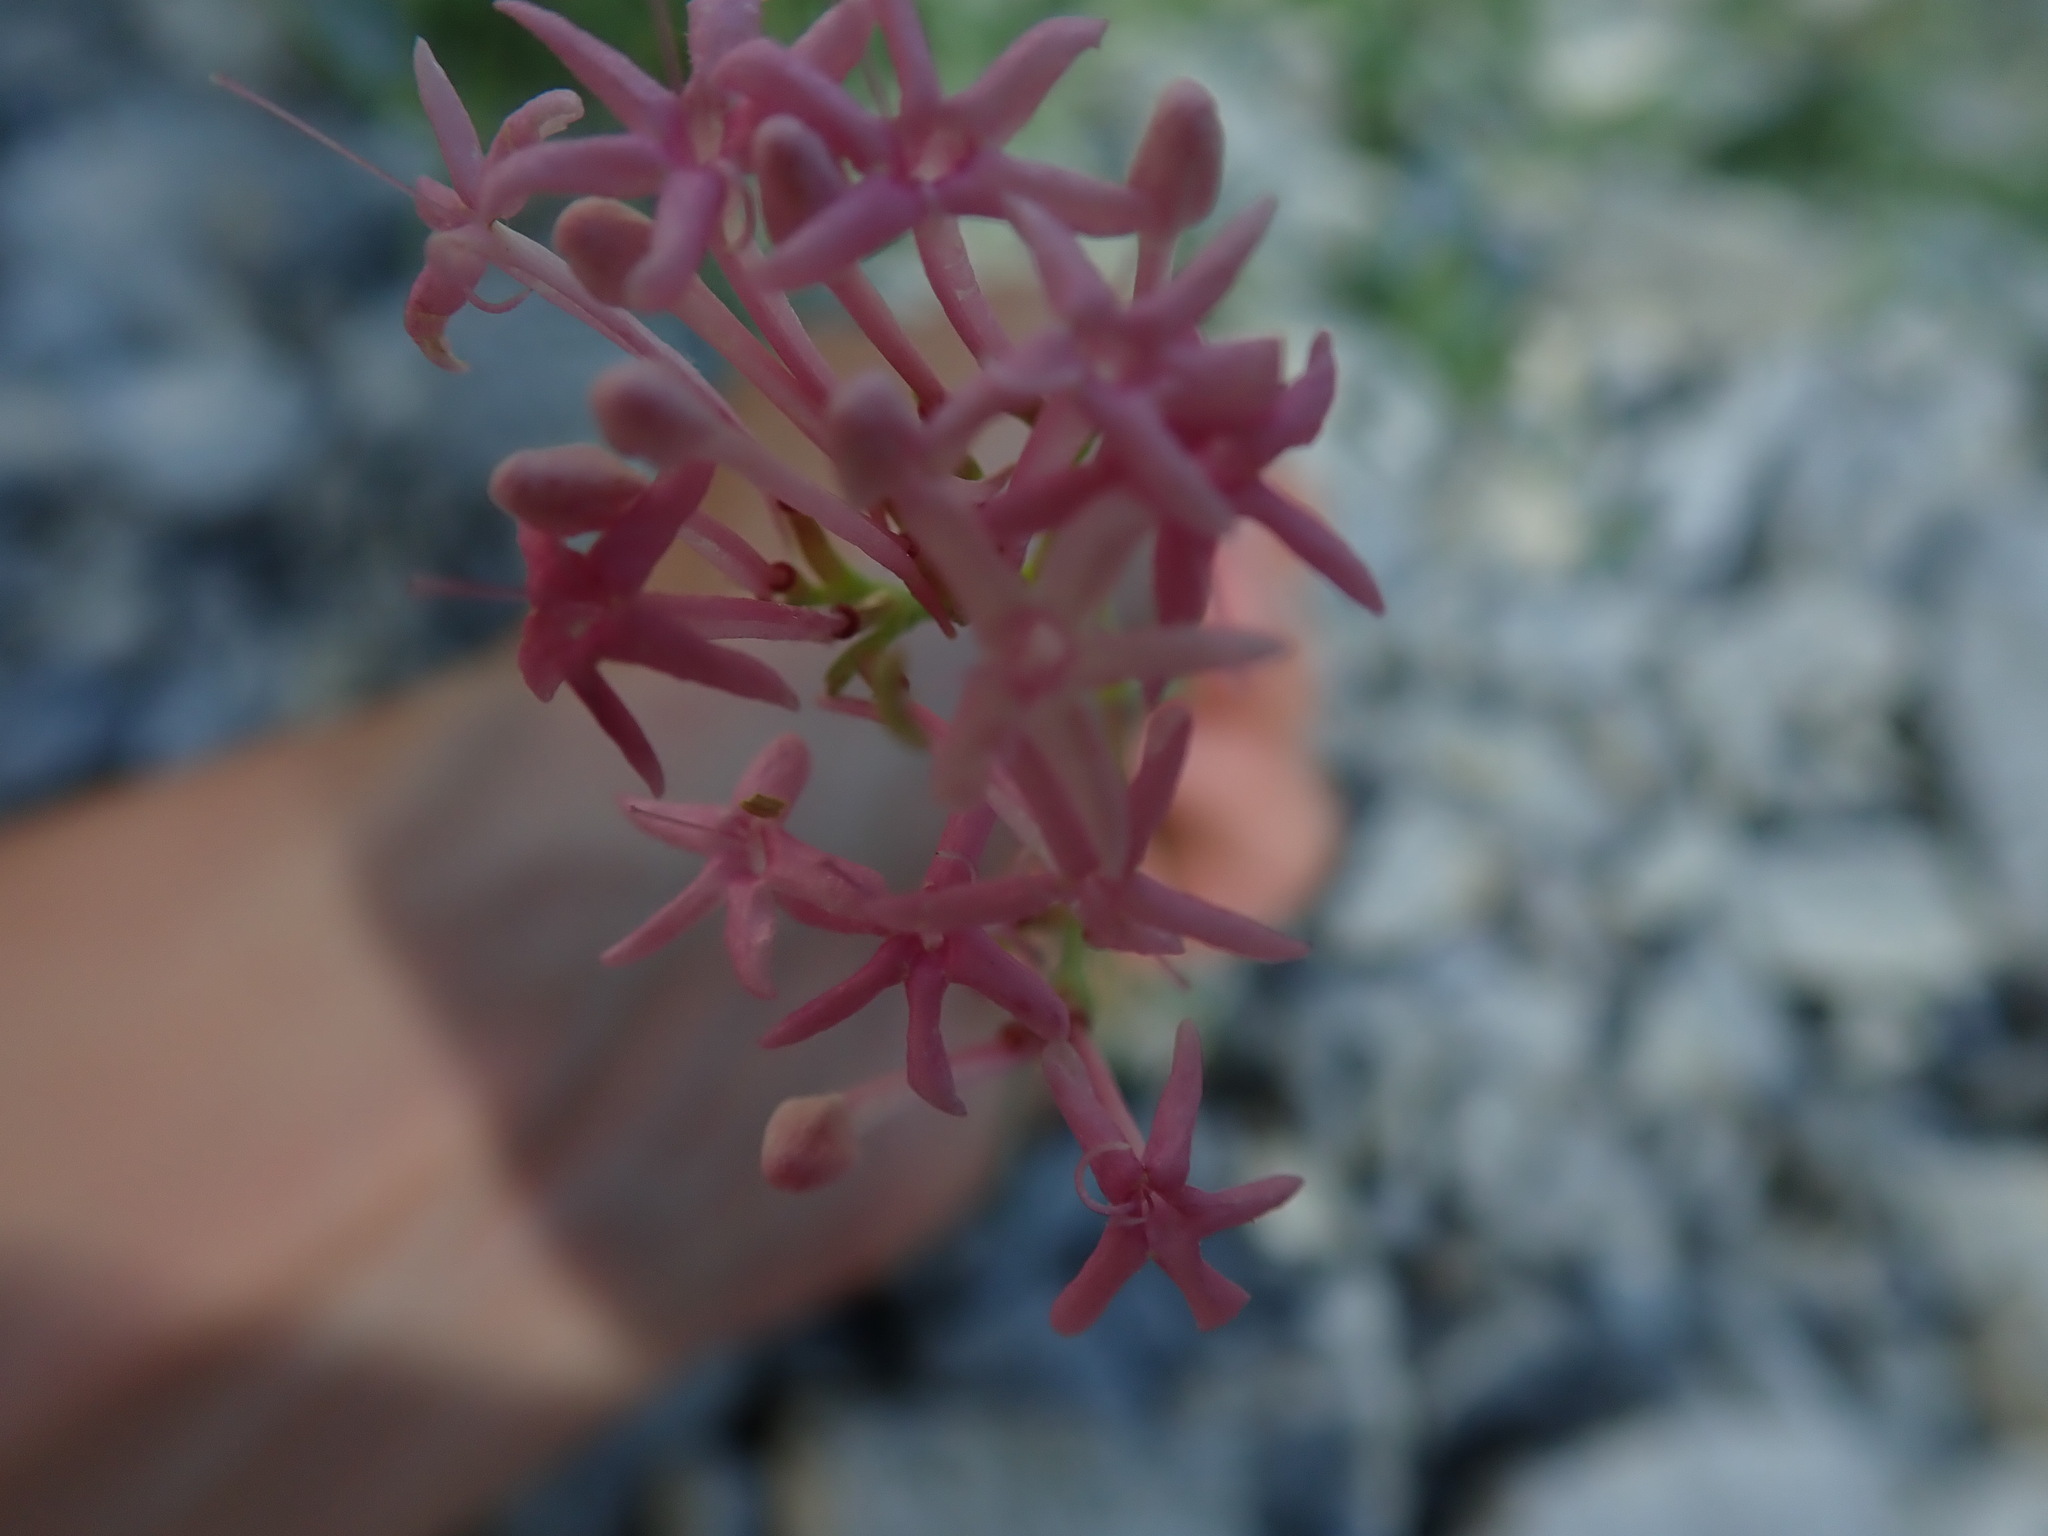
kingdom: Plantae
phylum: Tracheophyta
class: Magnoliopsida
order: Dipsacales
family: Caprifoliaceae
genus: Centranthus
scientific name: Centranthus angustifolius
